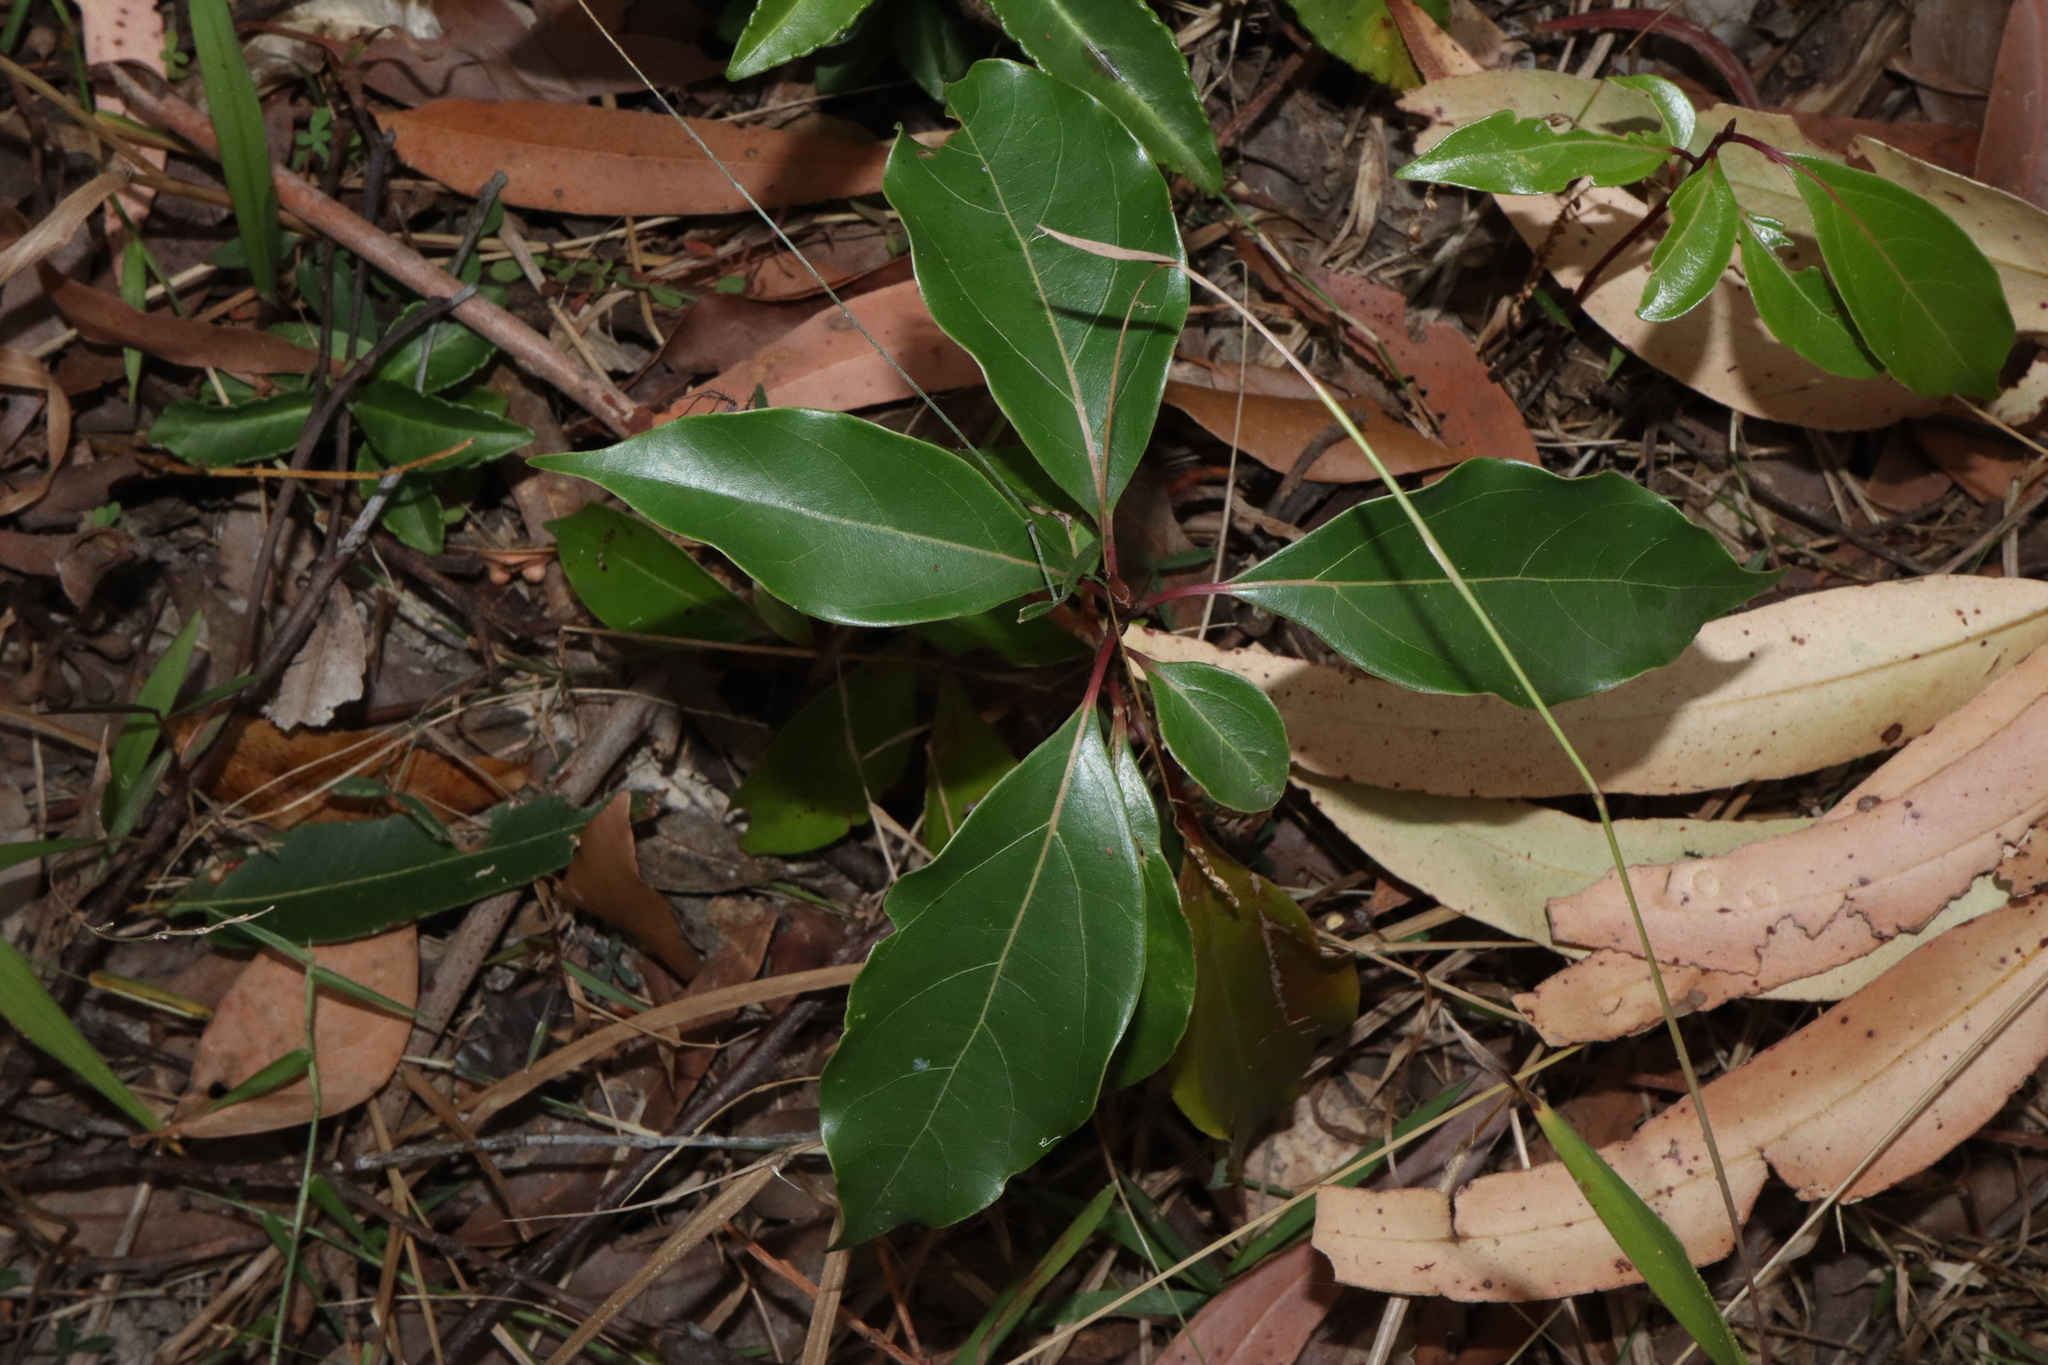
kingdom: Plantae
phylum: Tracheophyta
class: Magnoliopsida
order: Laurales
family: Lauraceae
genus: Cinnamomum
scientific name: Cinnamomum camphora
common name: Camphortree
